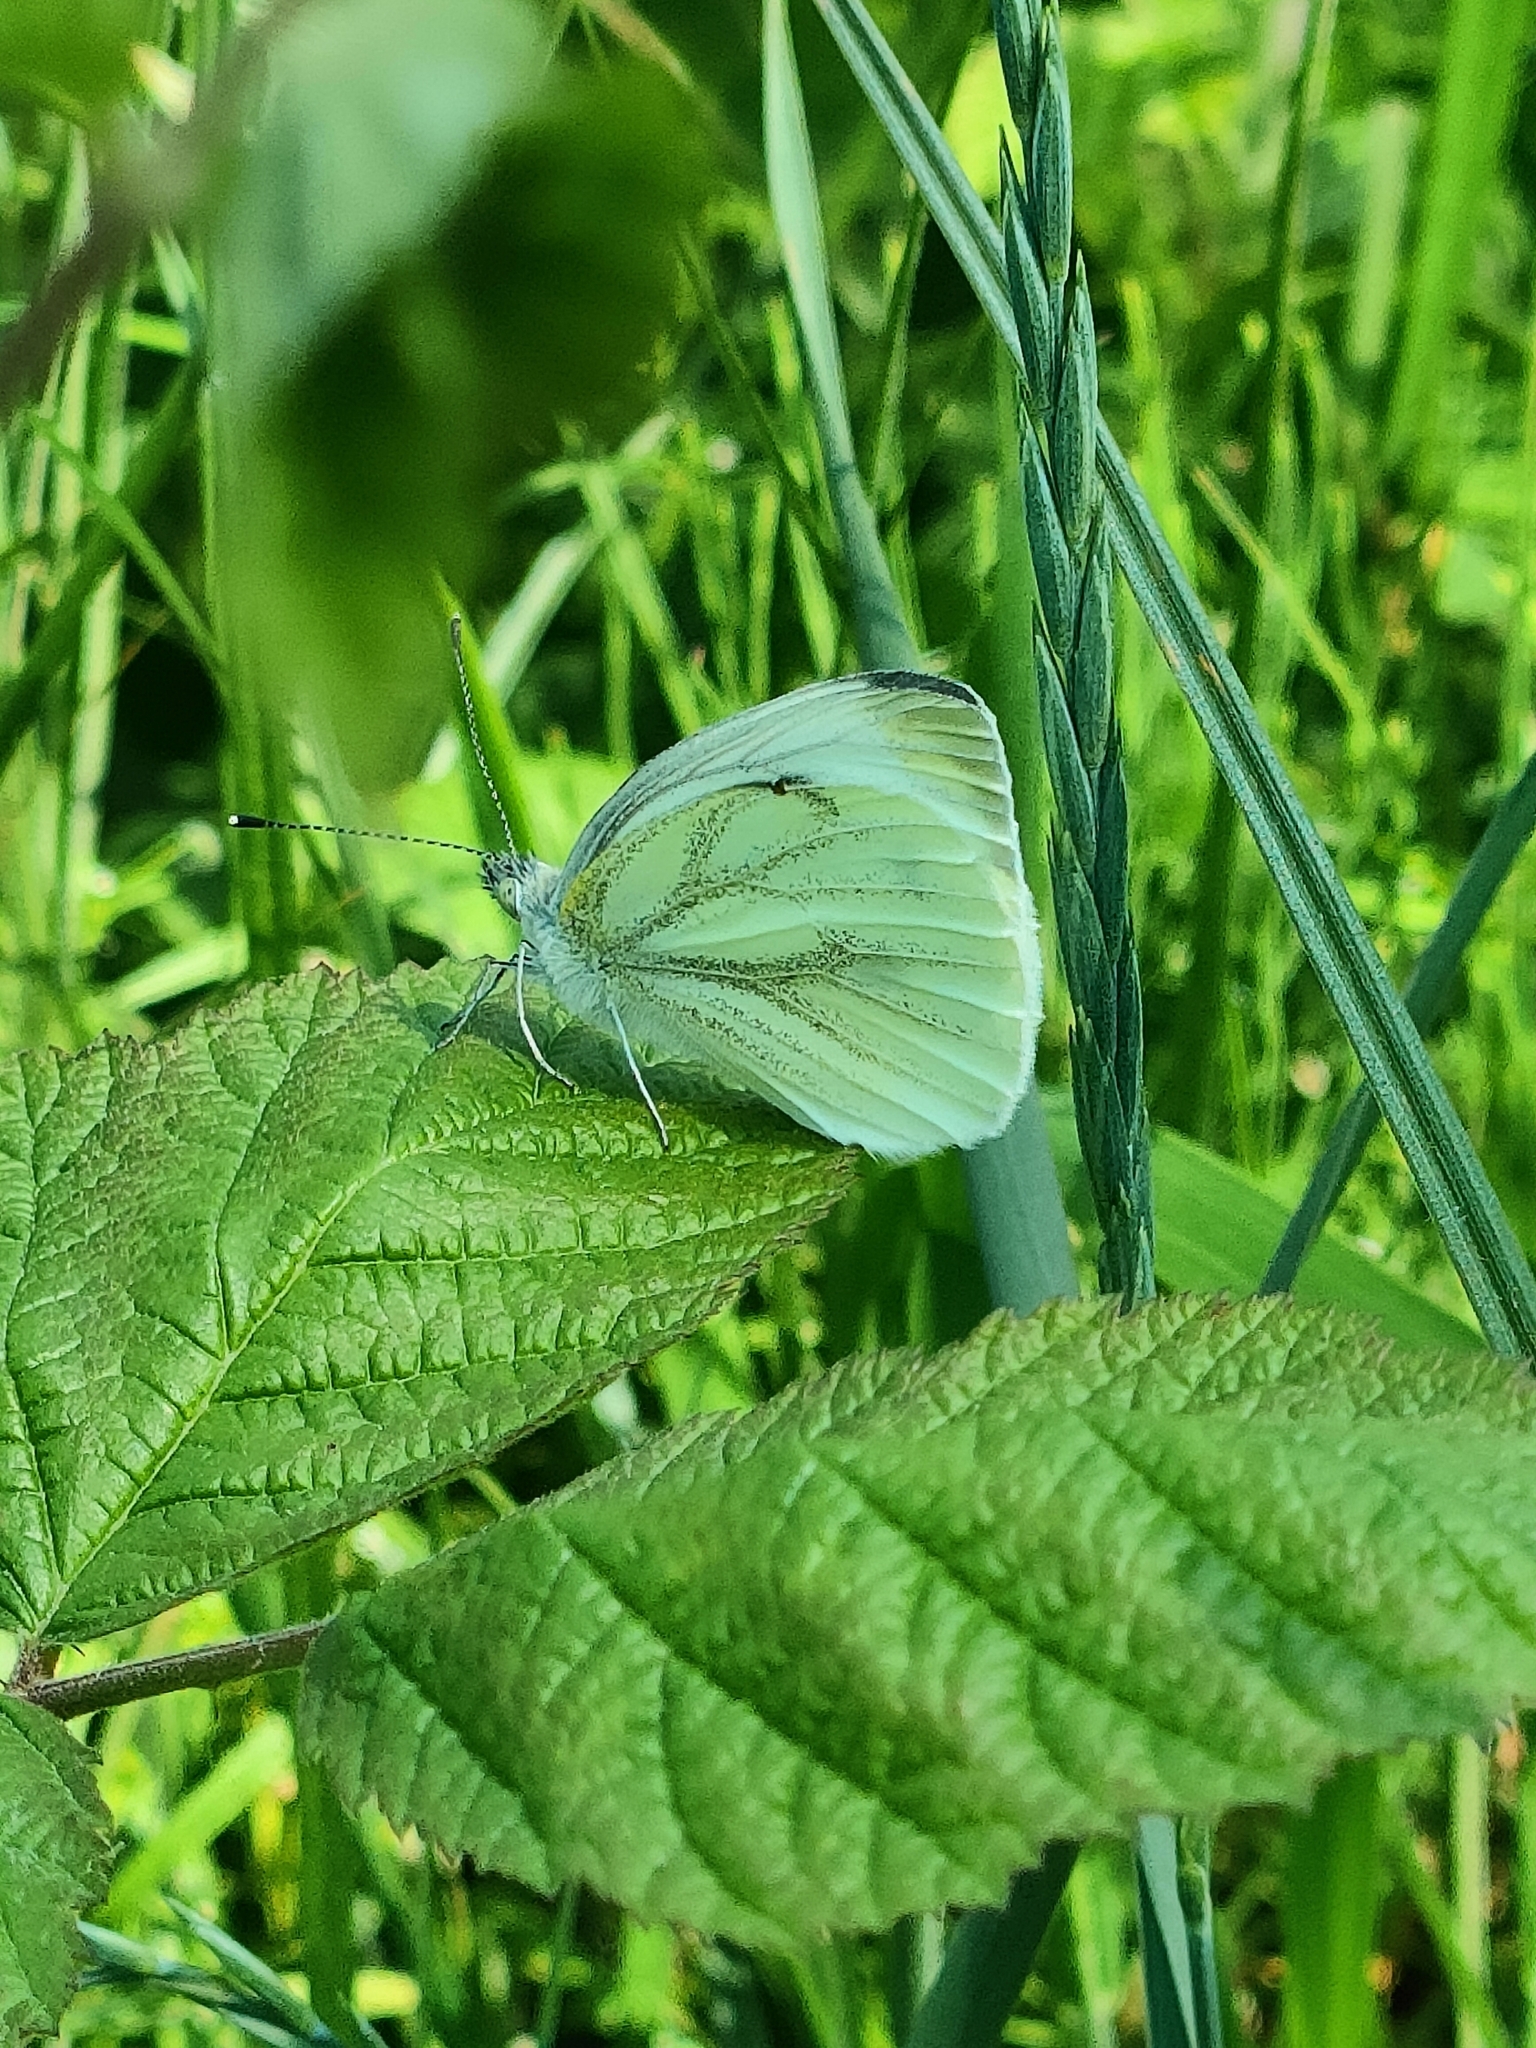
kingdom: Animalia
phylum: Arthropoda
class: Insecta
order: Lepidoptera
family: Pieridae
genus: Pieris
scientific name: Pieris napi
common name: Green-veined white
